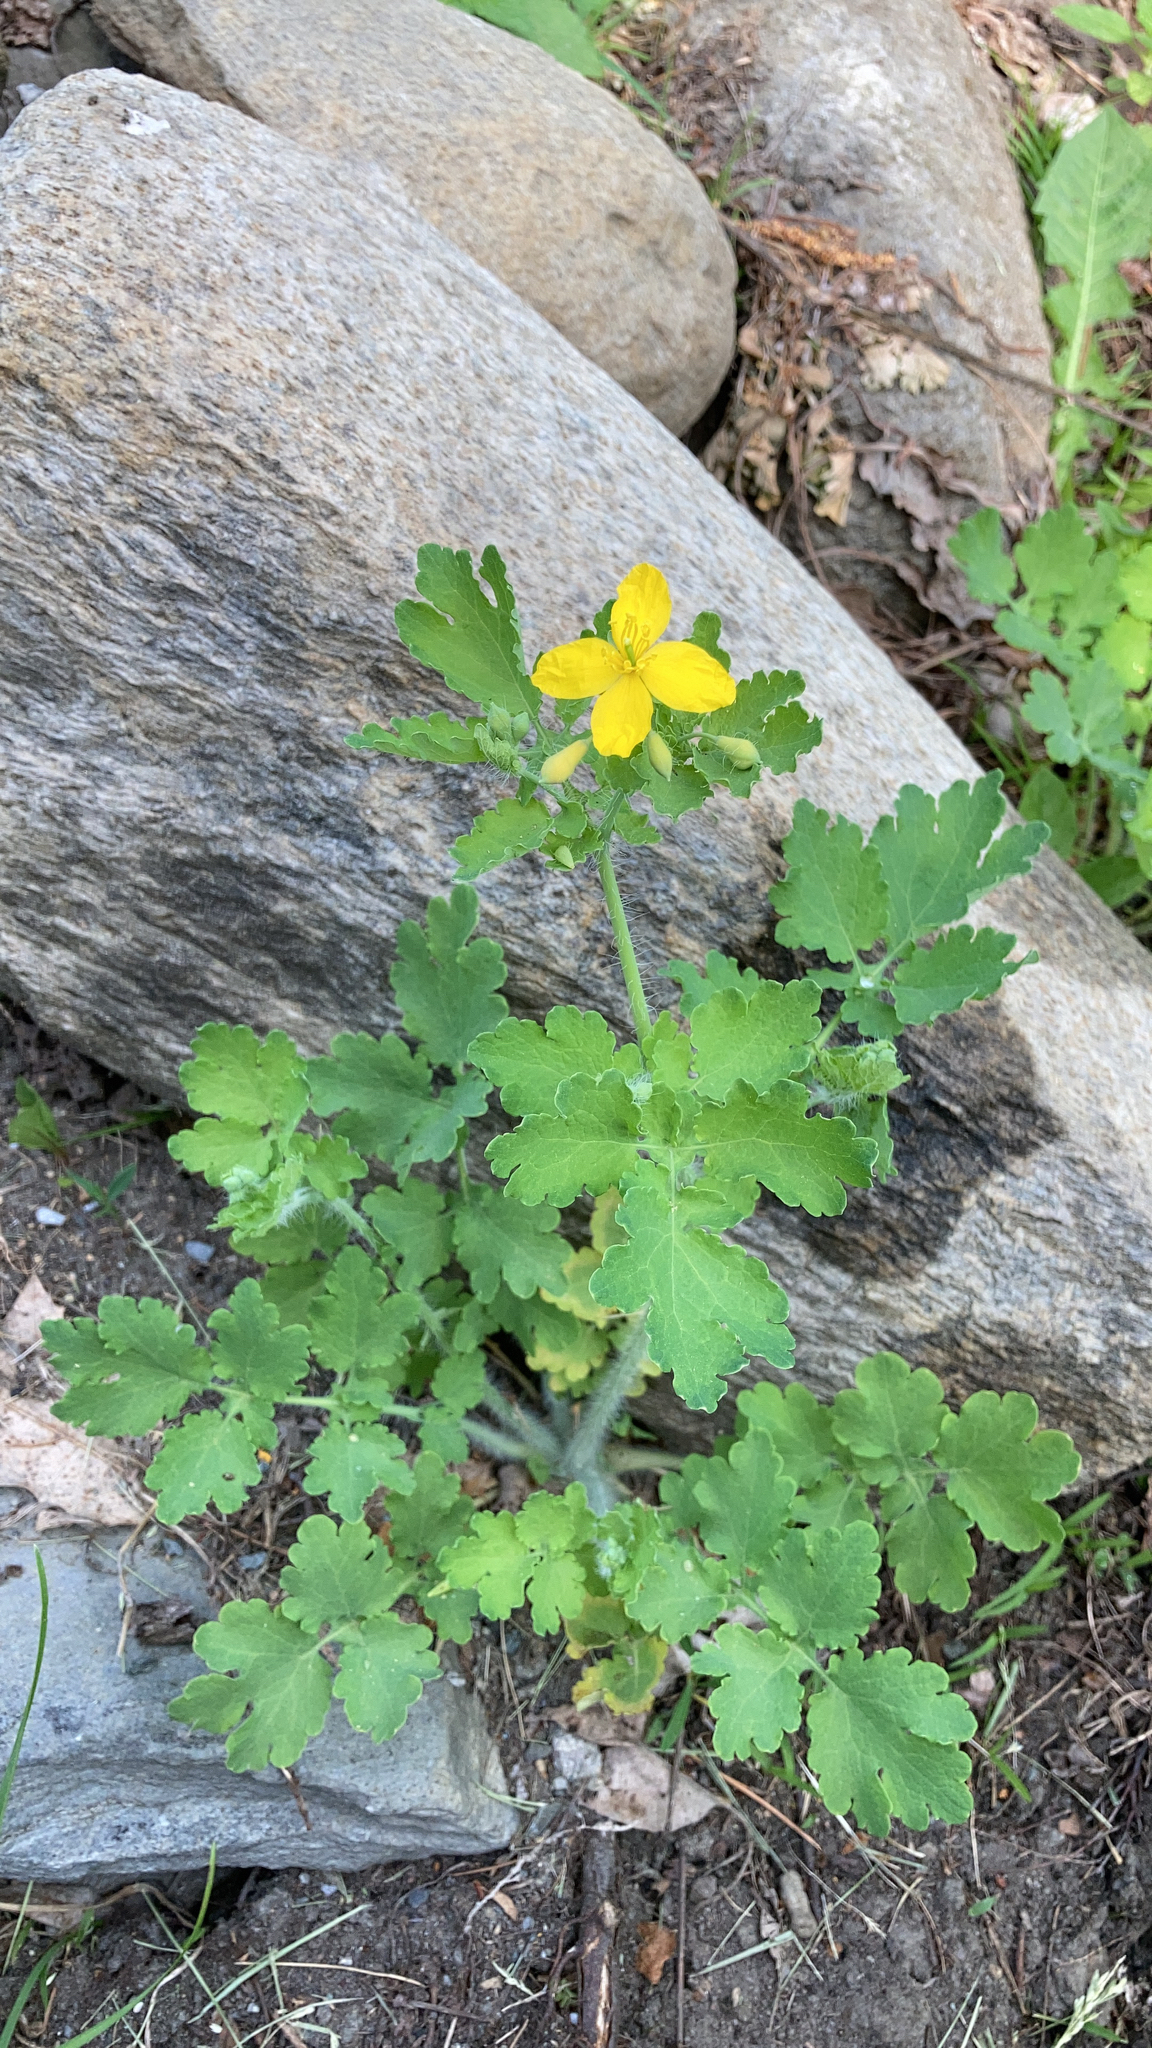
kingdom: Plantae
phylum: Tracheophyta
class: Magnoliopsida
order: Ranunculales
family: Papaveraceae
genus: Chelidonium
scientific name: Chelidonium majus
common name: Greater celandine
